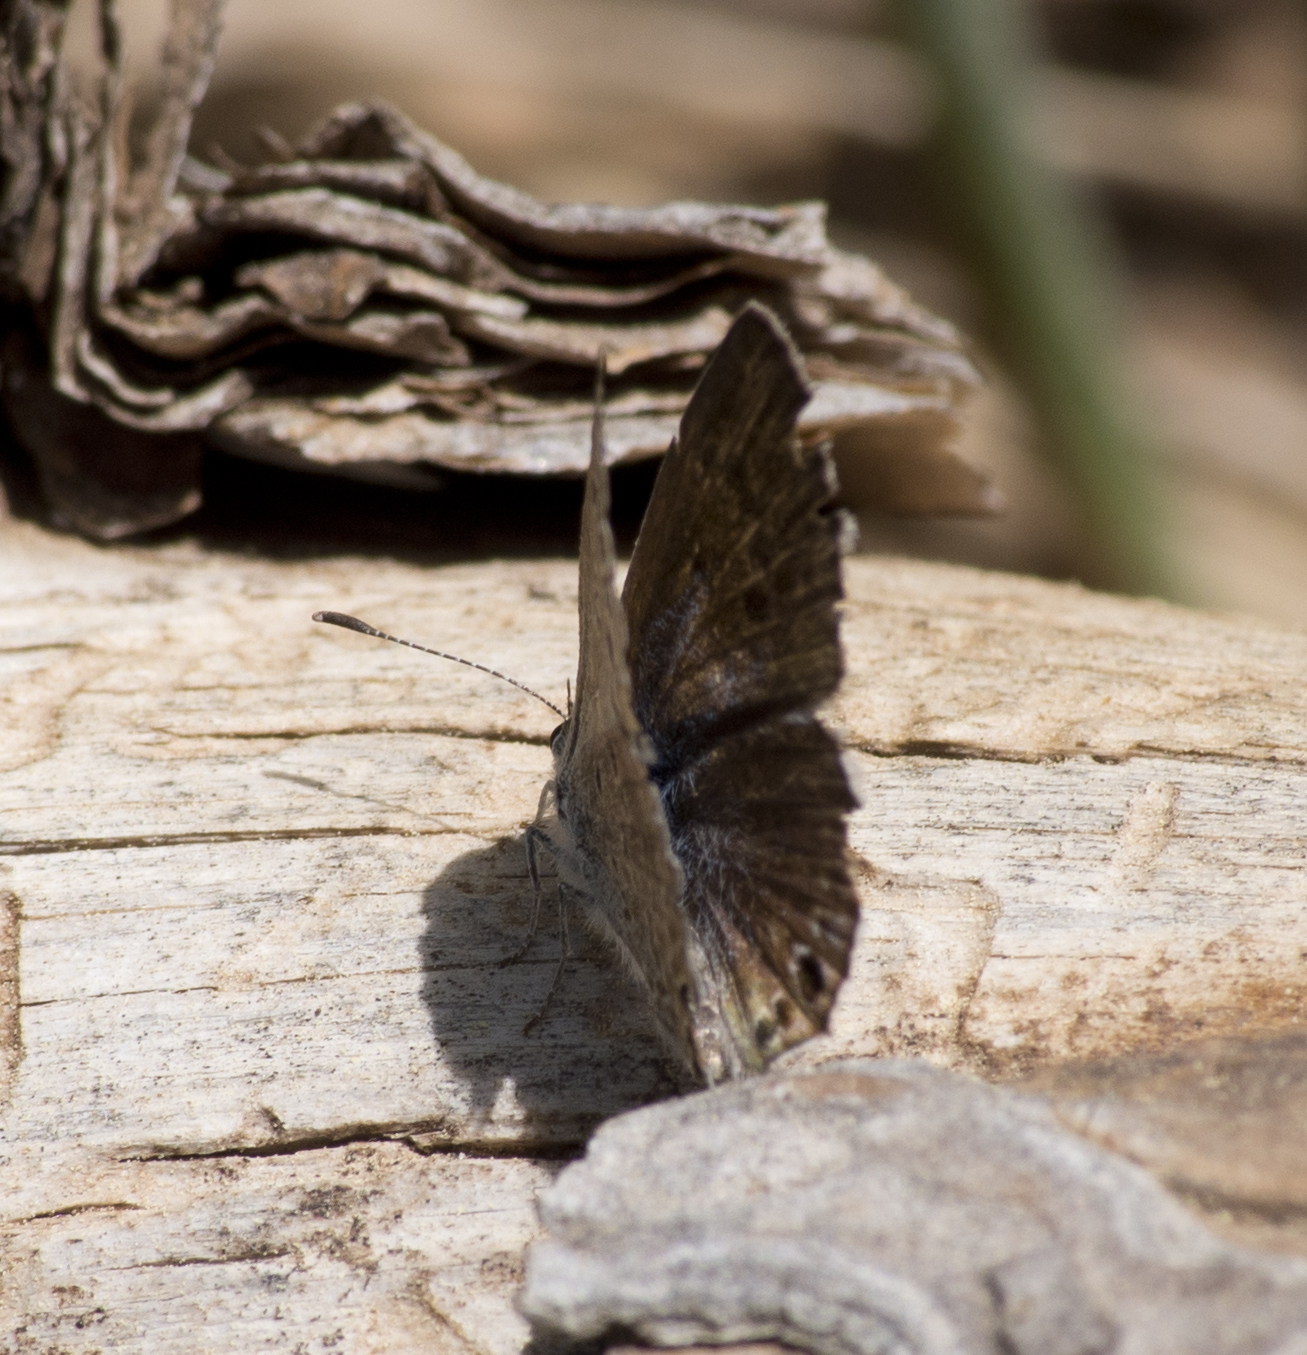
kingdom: Animalia
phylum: Arthropoda
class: Insecta
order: Lepidoptera
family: Lycaenidae
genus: Echinargus
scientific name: Echinargus isola
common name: Reakirt's blue
